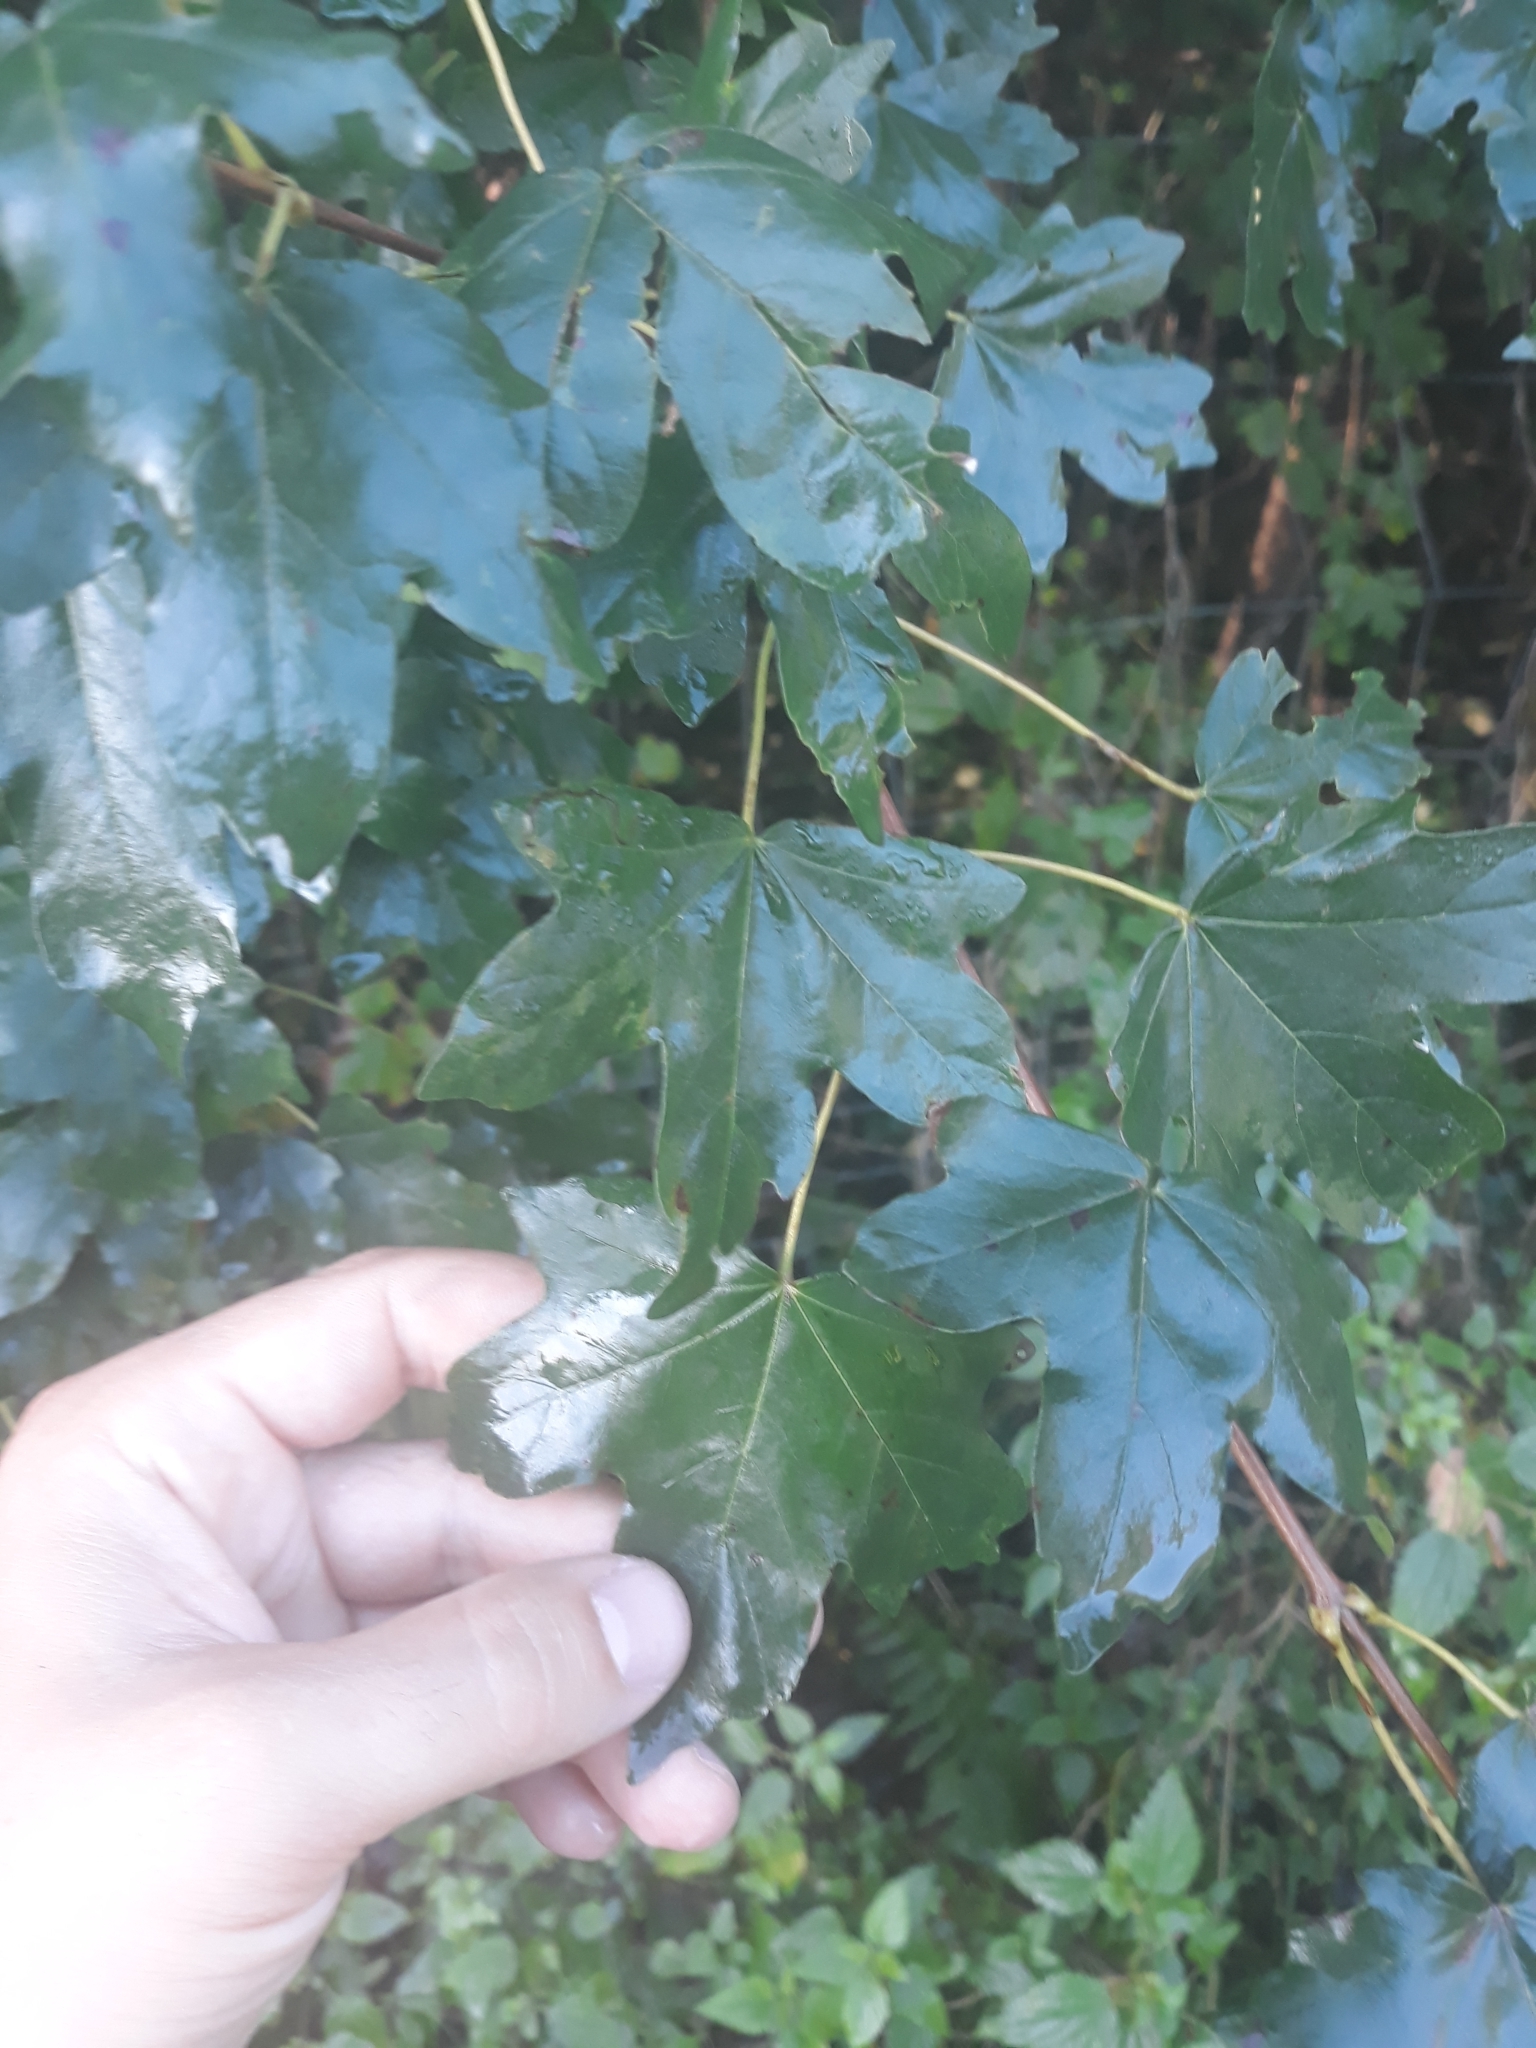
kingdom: Plantae
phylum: Tracheophyta
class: Magnoliopsida
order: Sapindales
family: Sapindaceae
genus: Acer
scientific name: Acer campestre
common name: Field maple
